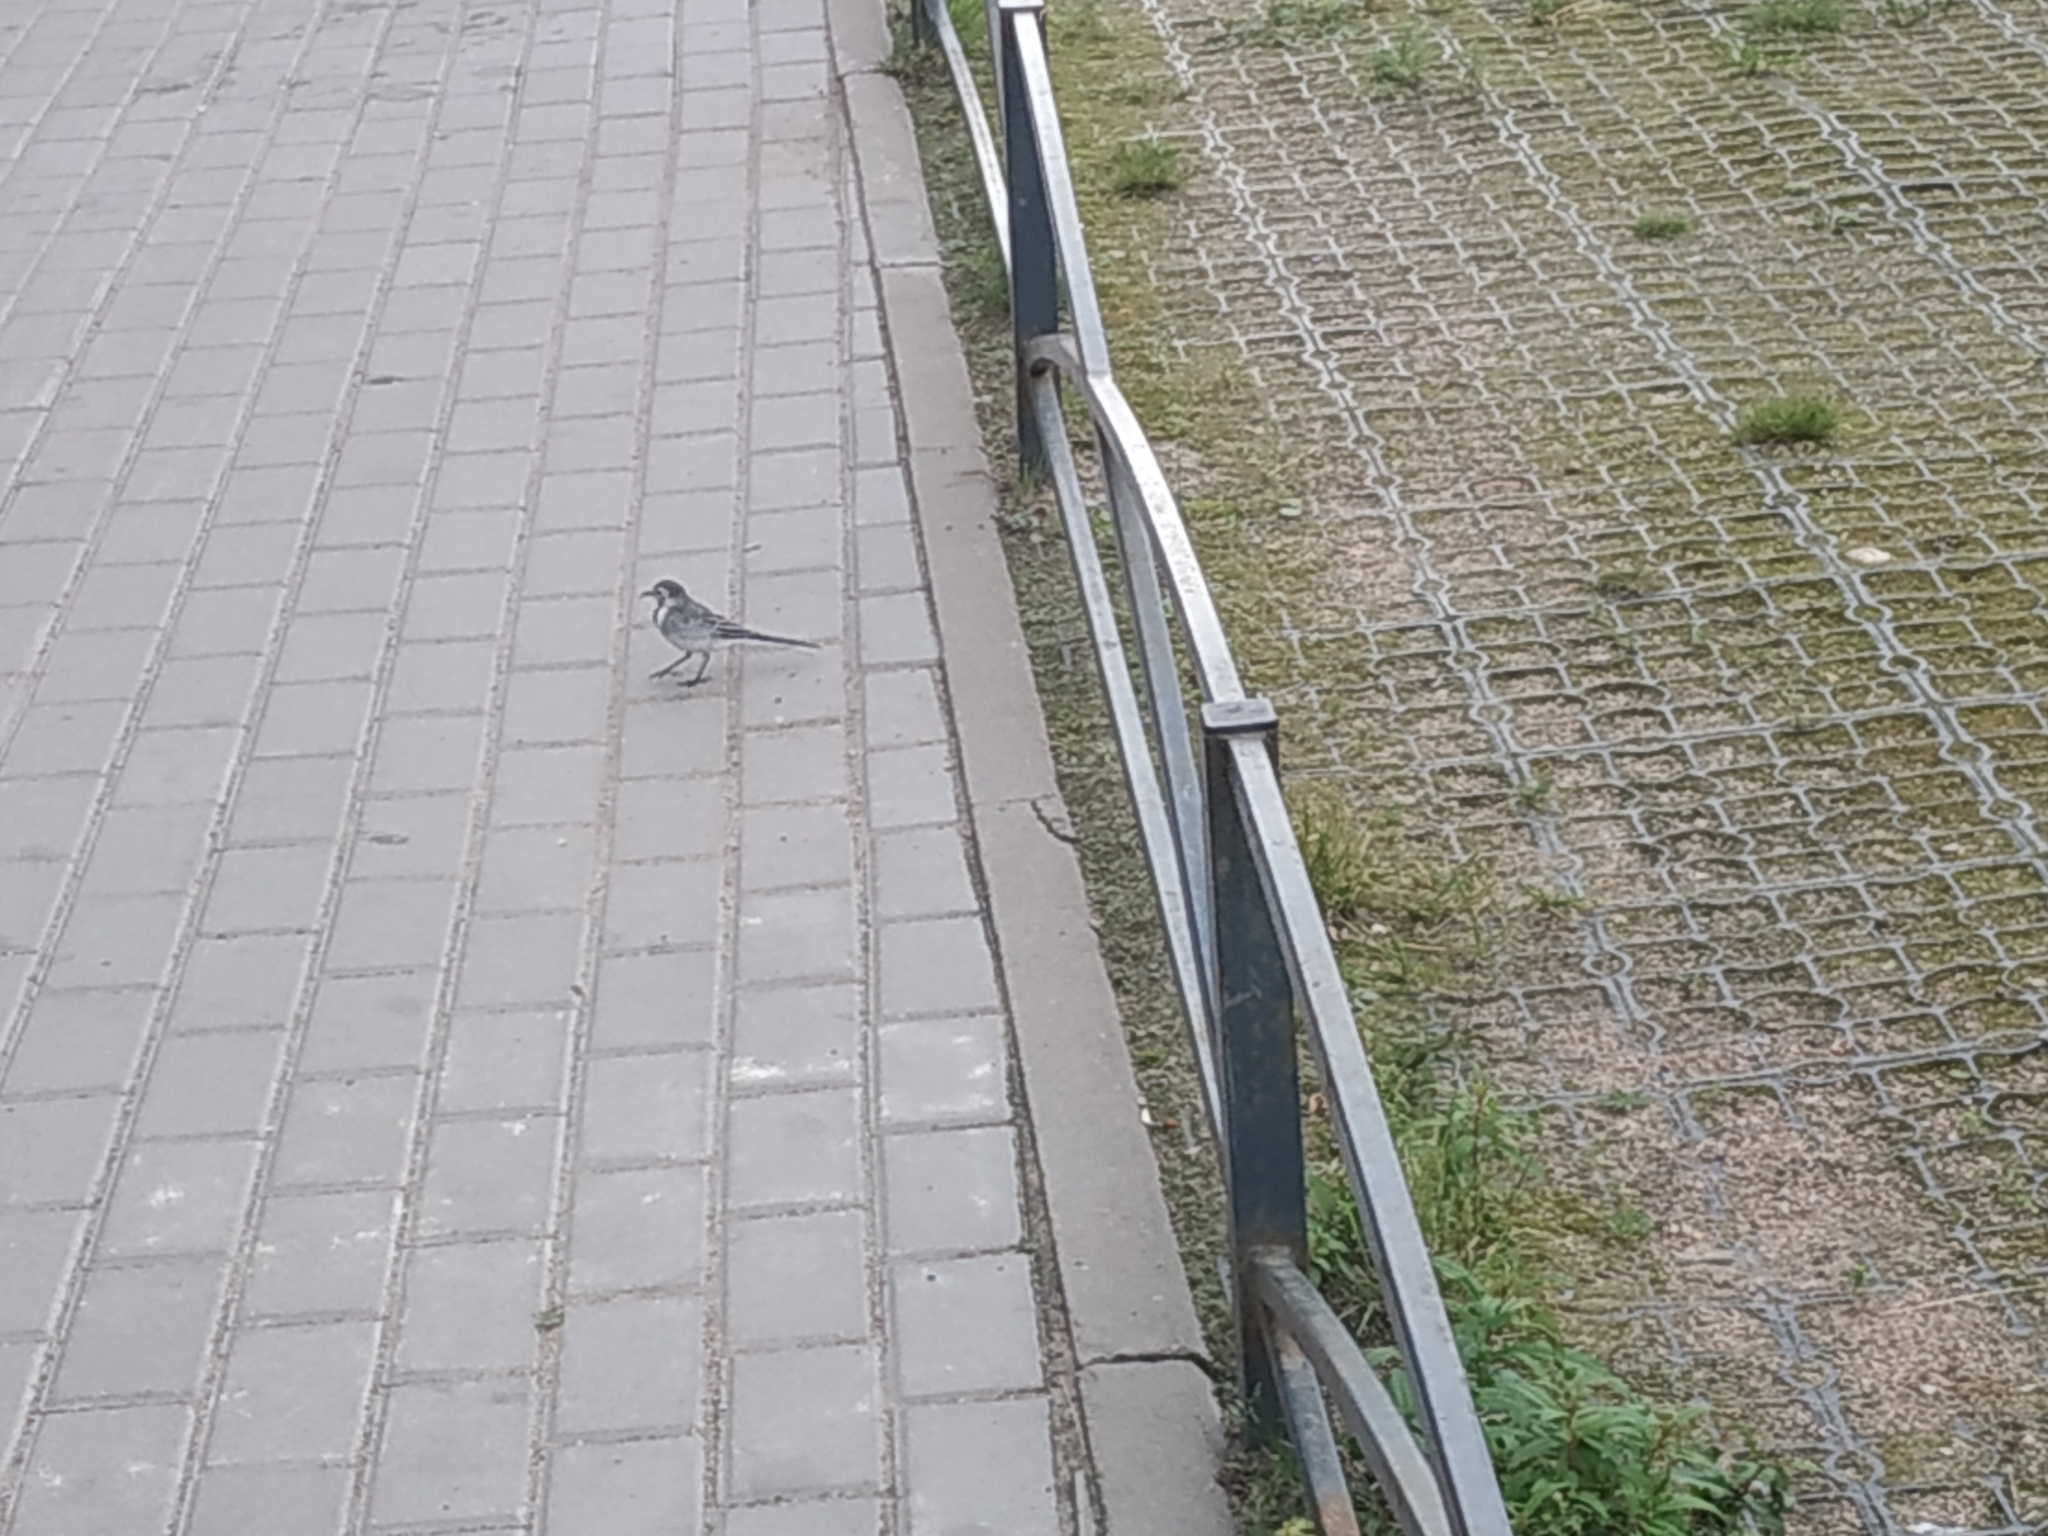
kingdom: Animalia
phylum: Chordata
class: Aves
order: Passeriformes
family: Motacillidae
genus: Motacilla
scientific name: Motacilla alba
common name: White wagtail
